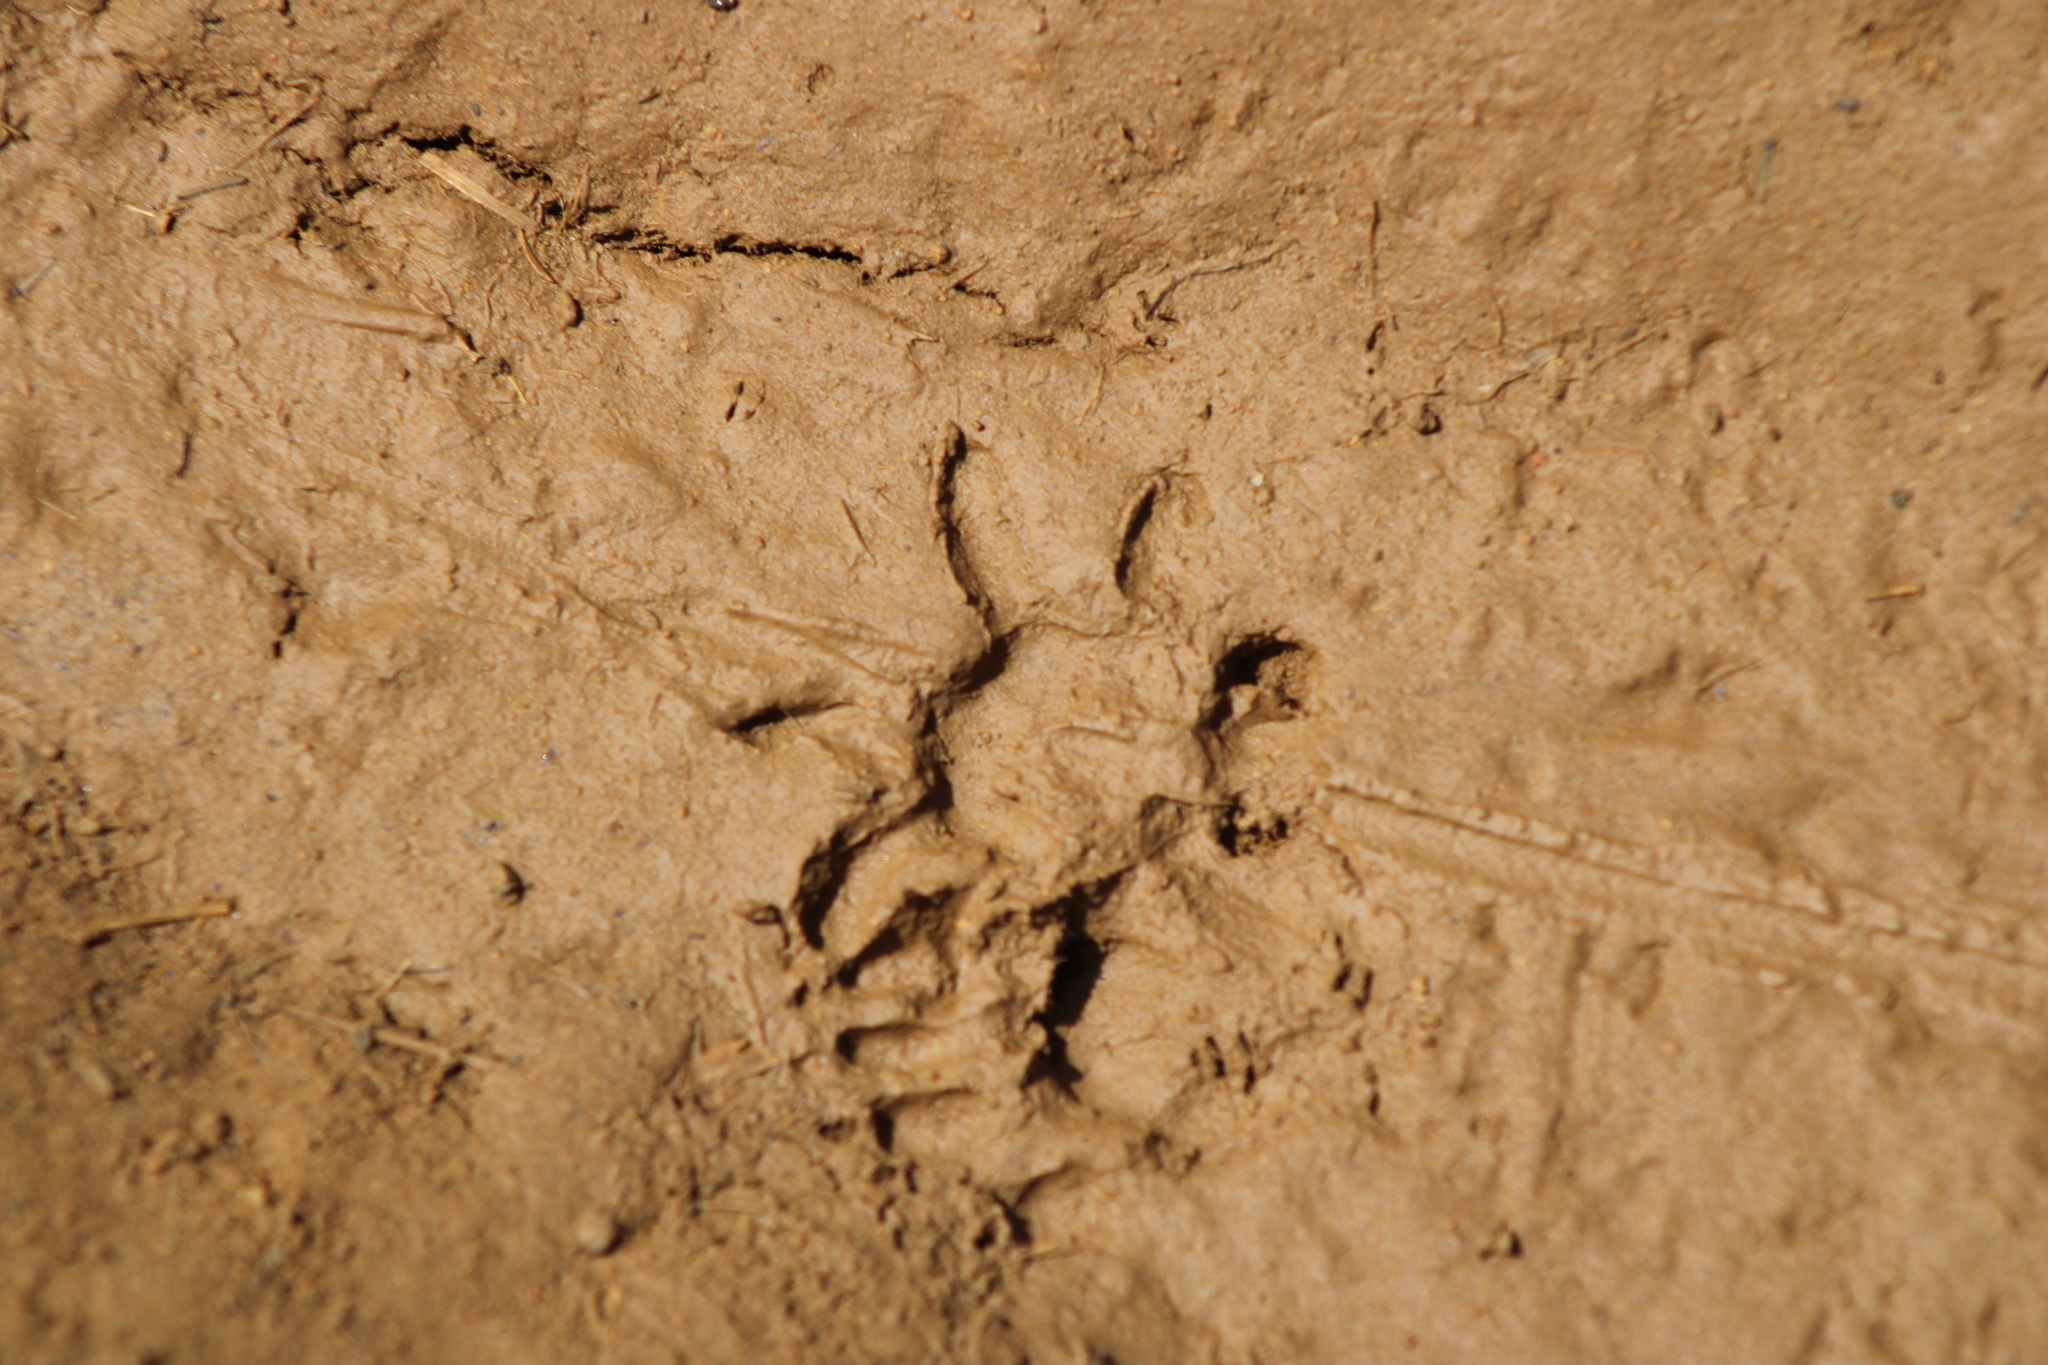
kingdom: Animalia
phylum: Chordata
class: Mammalia
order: Didelphimorphia
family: Didelphidae
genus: Didelphis
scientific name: Didelphis marsupialis
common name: Common opossum
